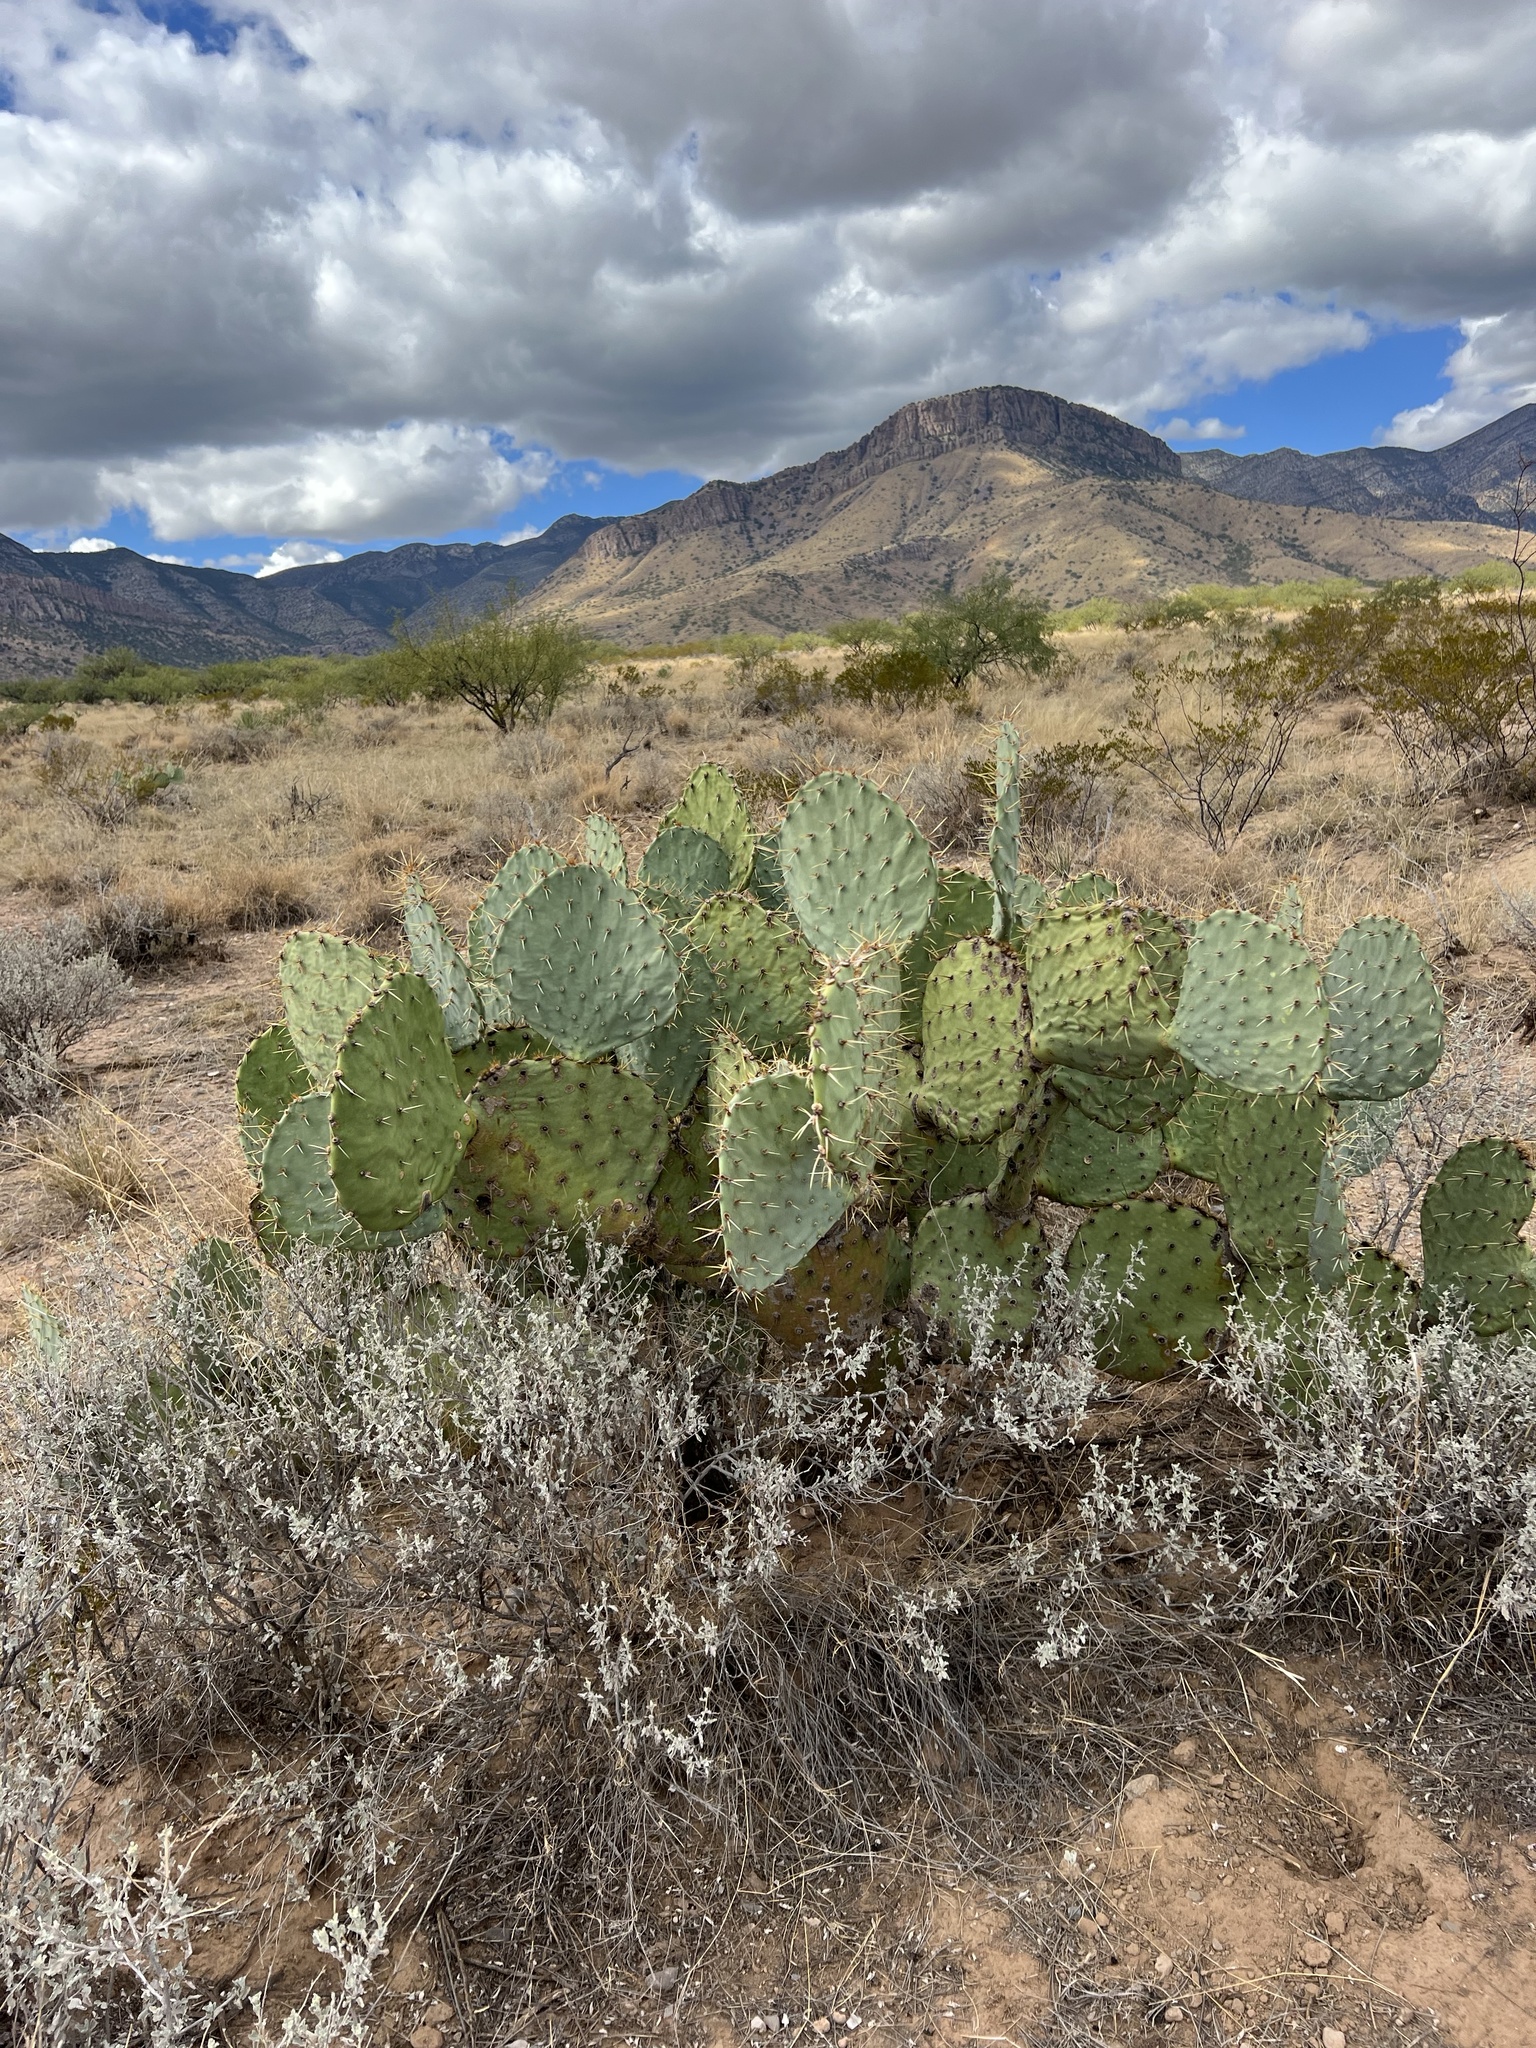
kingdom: Plantae
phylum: Tracheophyta
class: Magnoliopsida
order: Caryophyllales
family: Cactaceae
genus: Opuntia
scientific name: Opuntia engelmannii
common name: Cactus-apple
